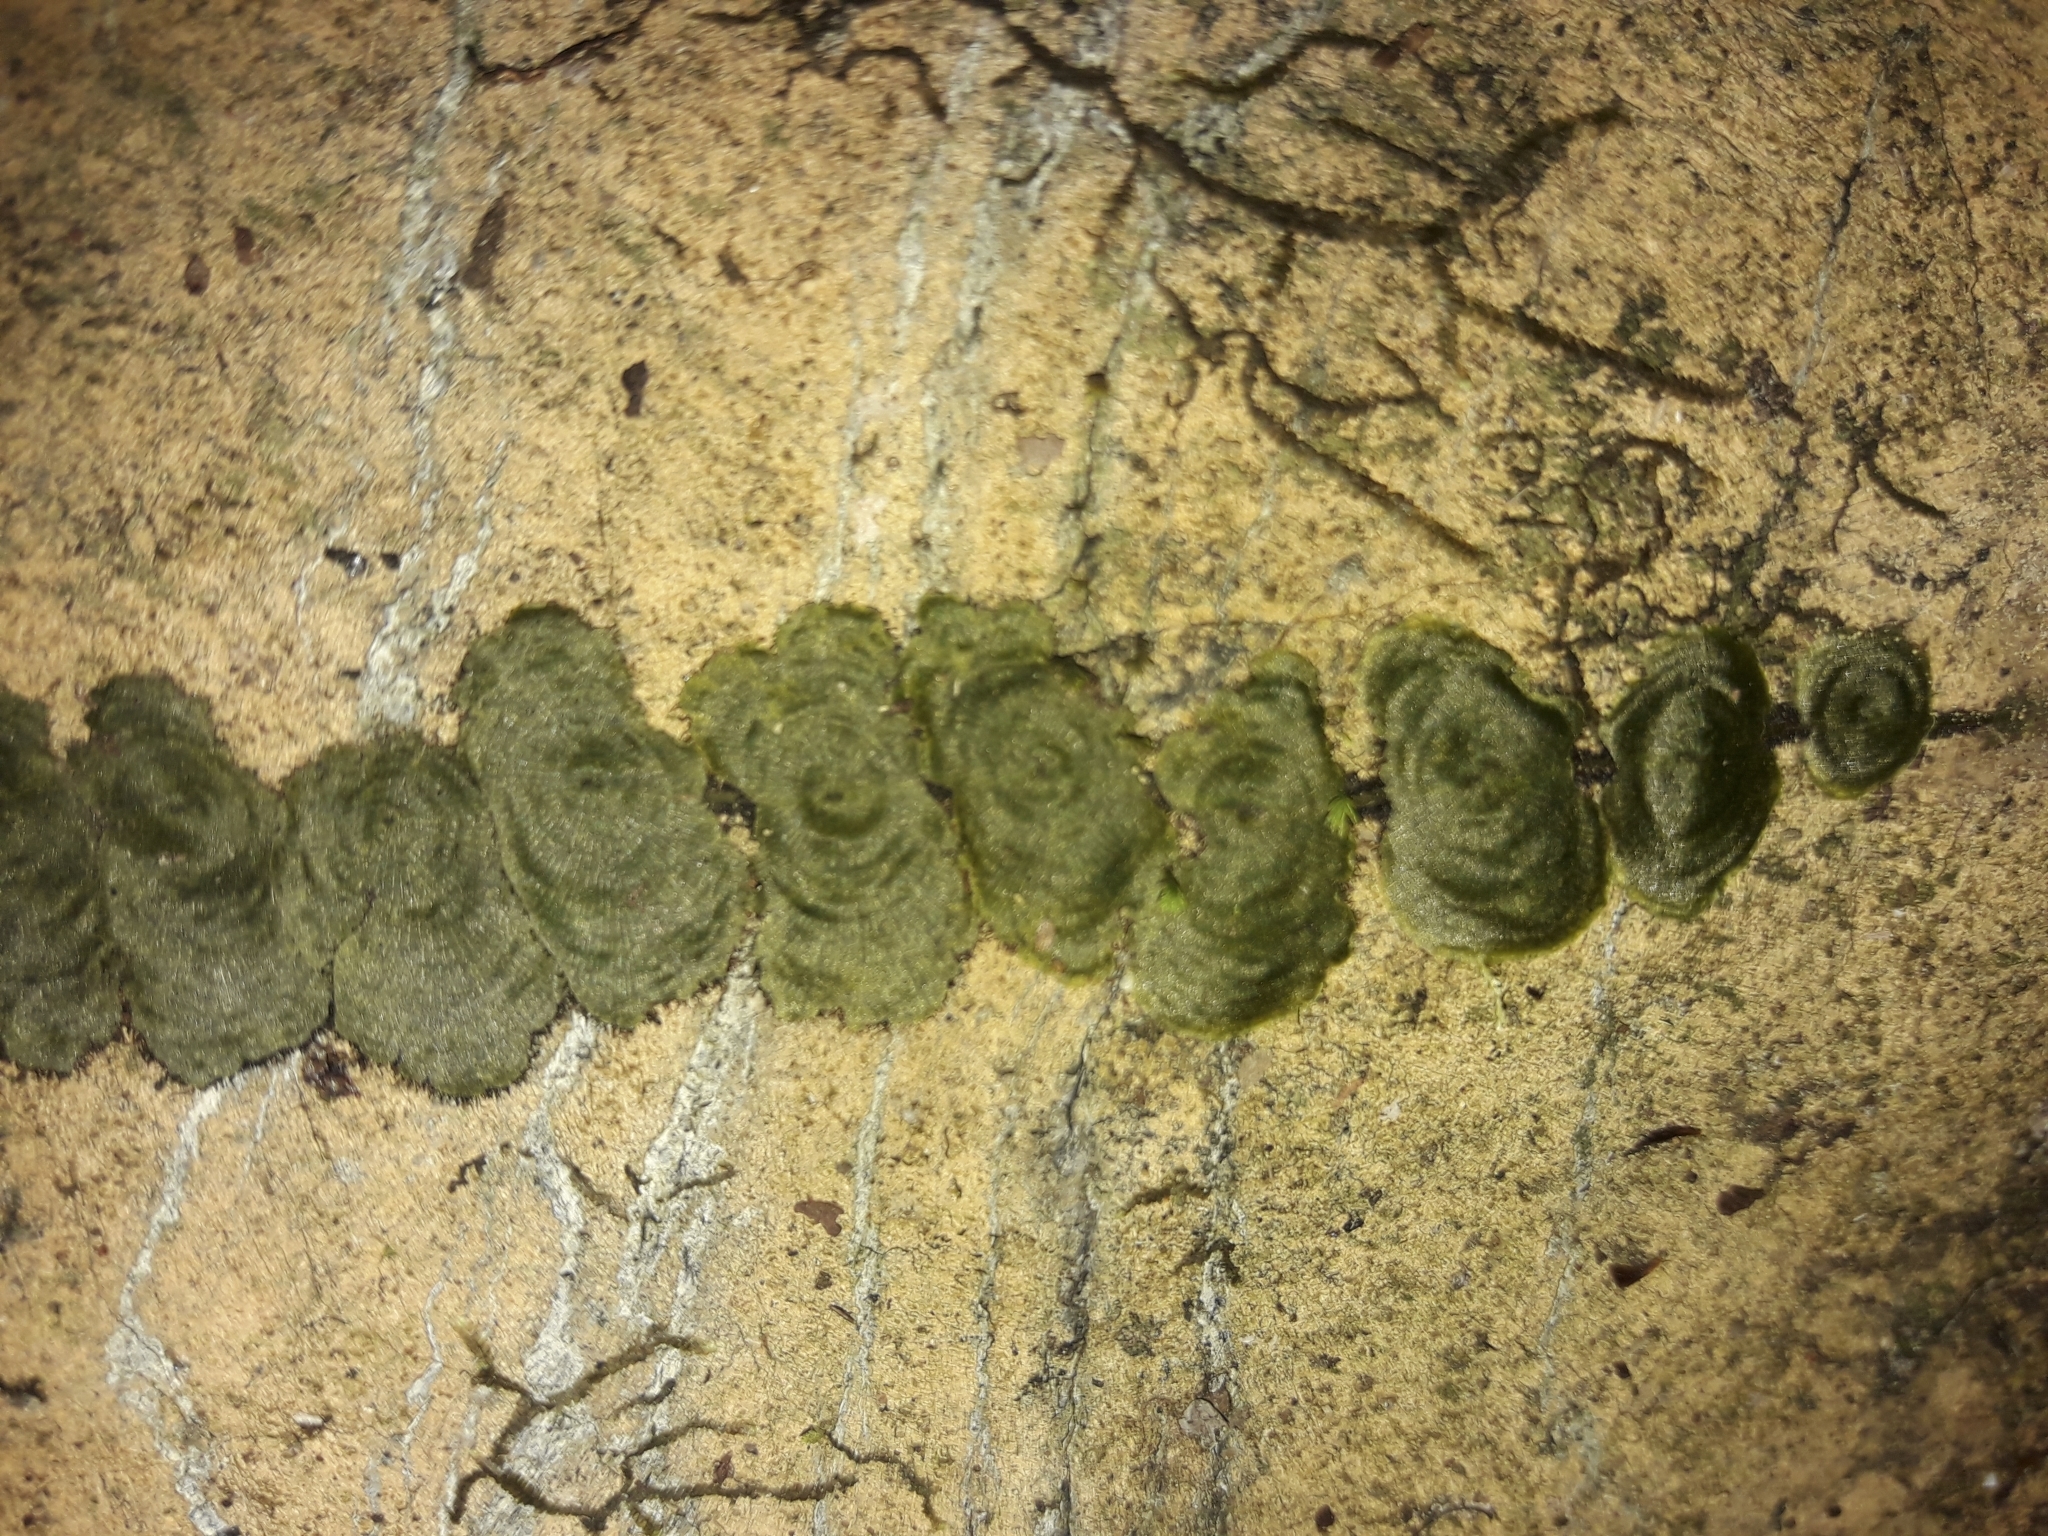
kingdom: Plantae
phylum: Tracheophyta
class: Polypodiopsida
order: Hymenophyllales
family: Hymenophyllaceae
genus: Didymoglossum
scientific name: Didymoglossum tahitense
